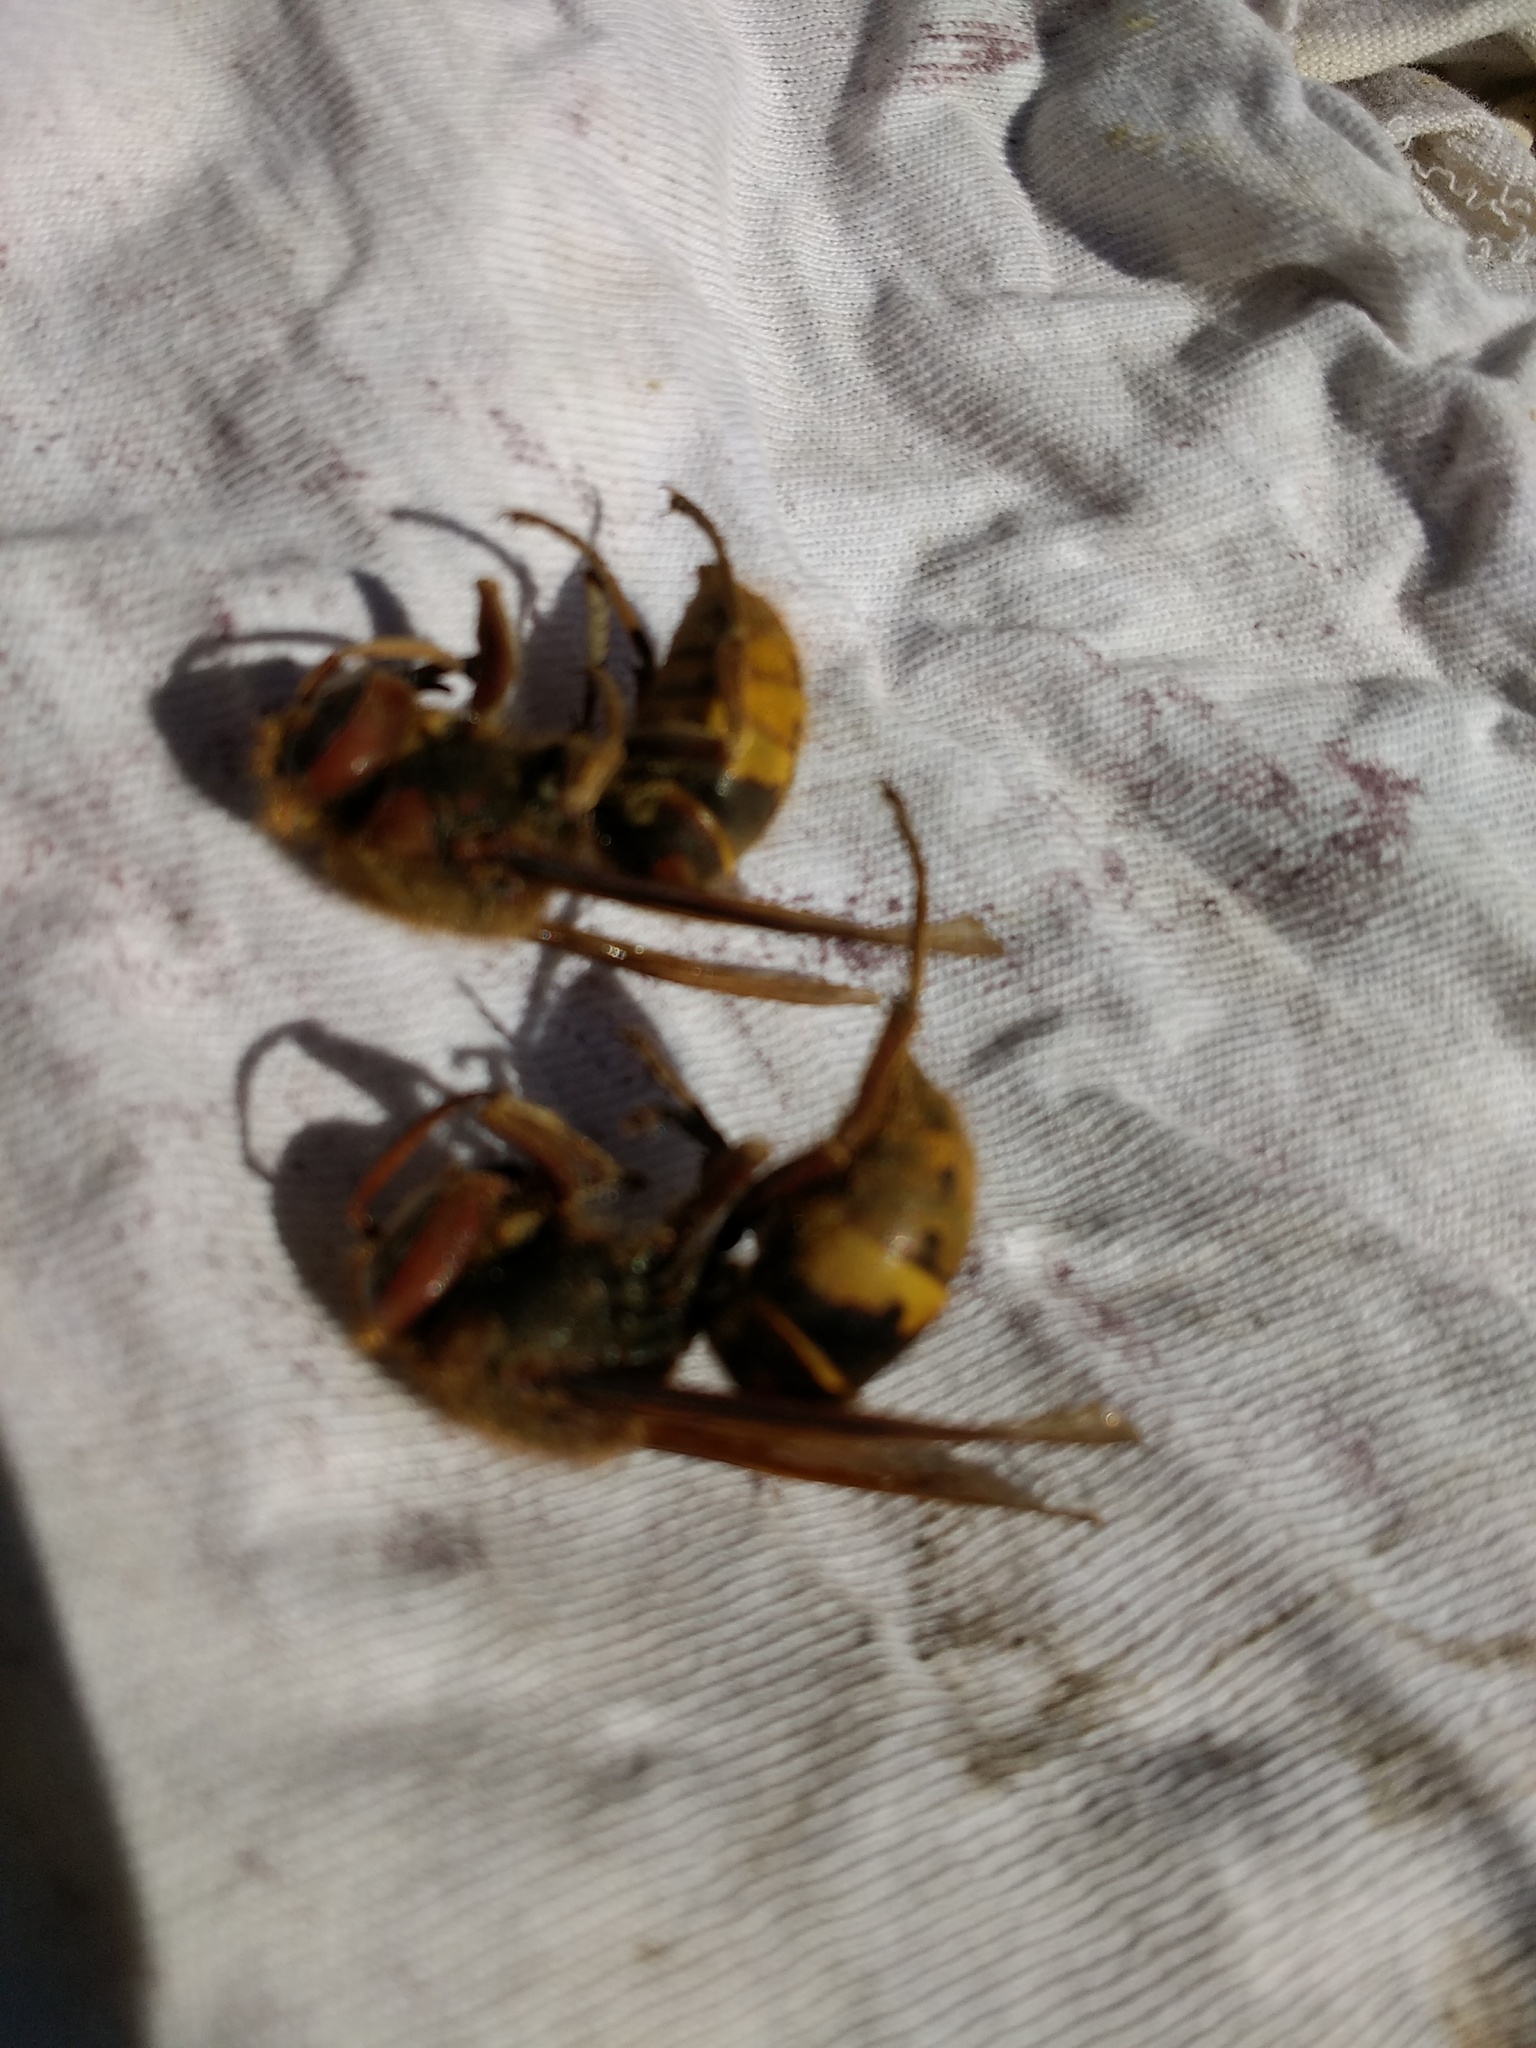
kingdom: Animalia
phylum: Arthropoda
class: Insecta
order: Hymenoptera
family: Vespidae
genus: Vespa
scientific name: Vespa crabro
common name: Hornet
